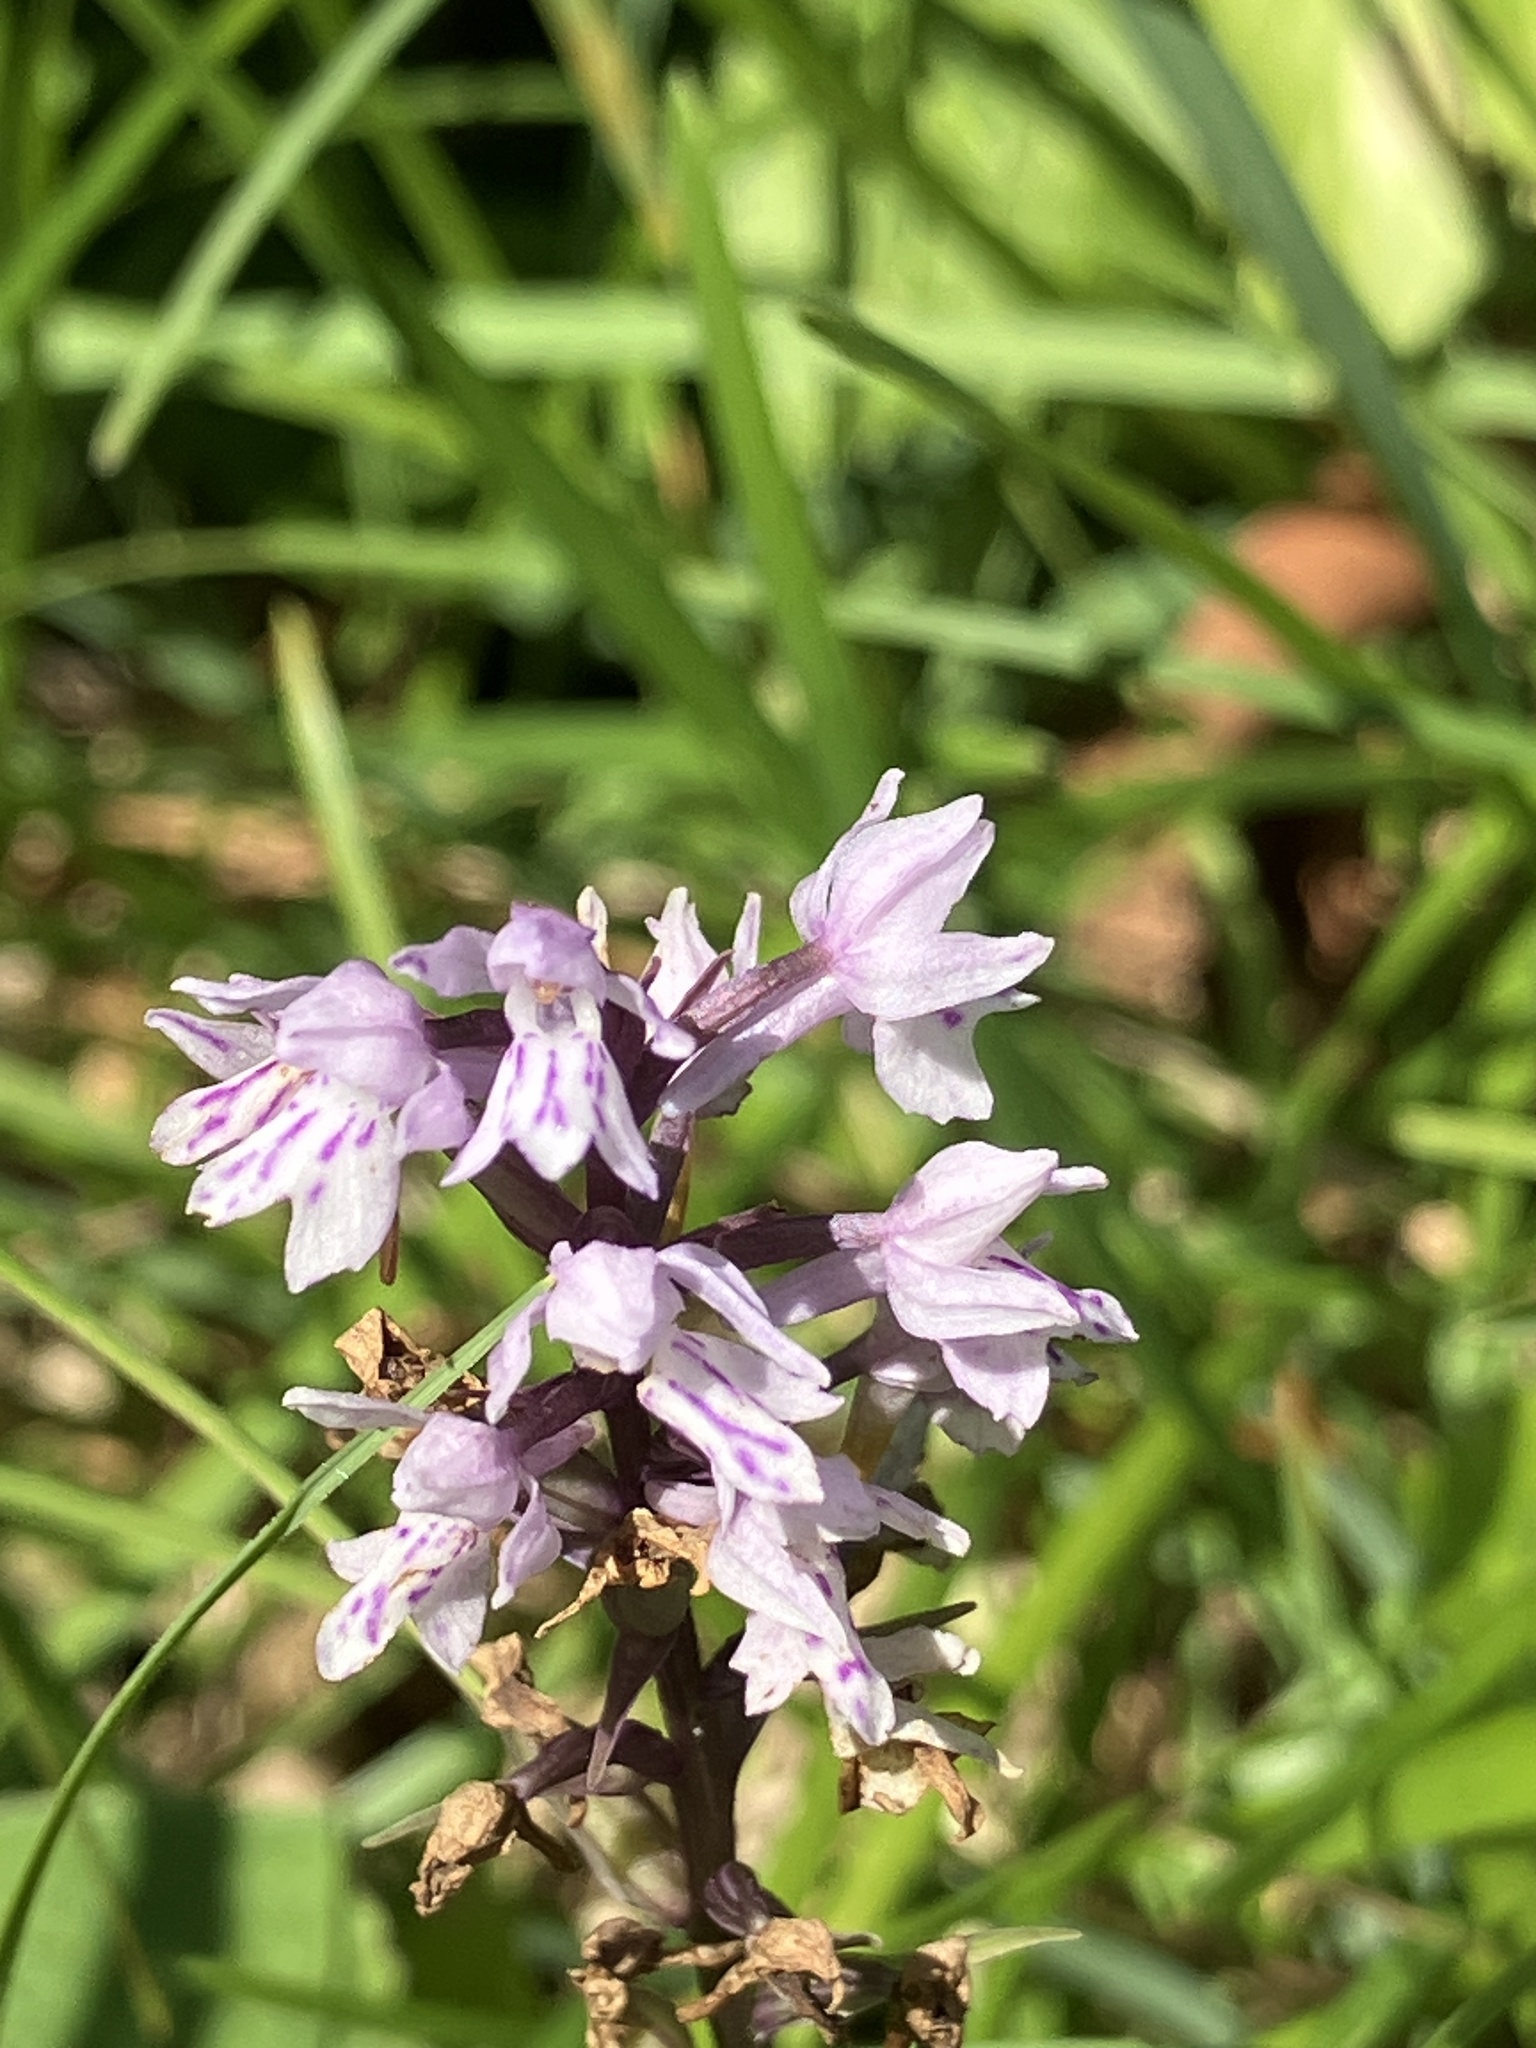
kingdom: Plantae
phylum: Tracheophyta
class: Liliopsida
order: Asparagales
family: Orchidaceae
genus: Dactylorhiza
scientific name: Dactylorhiza maculata
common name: Heath spotted-orchid
